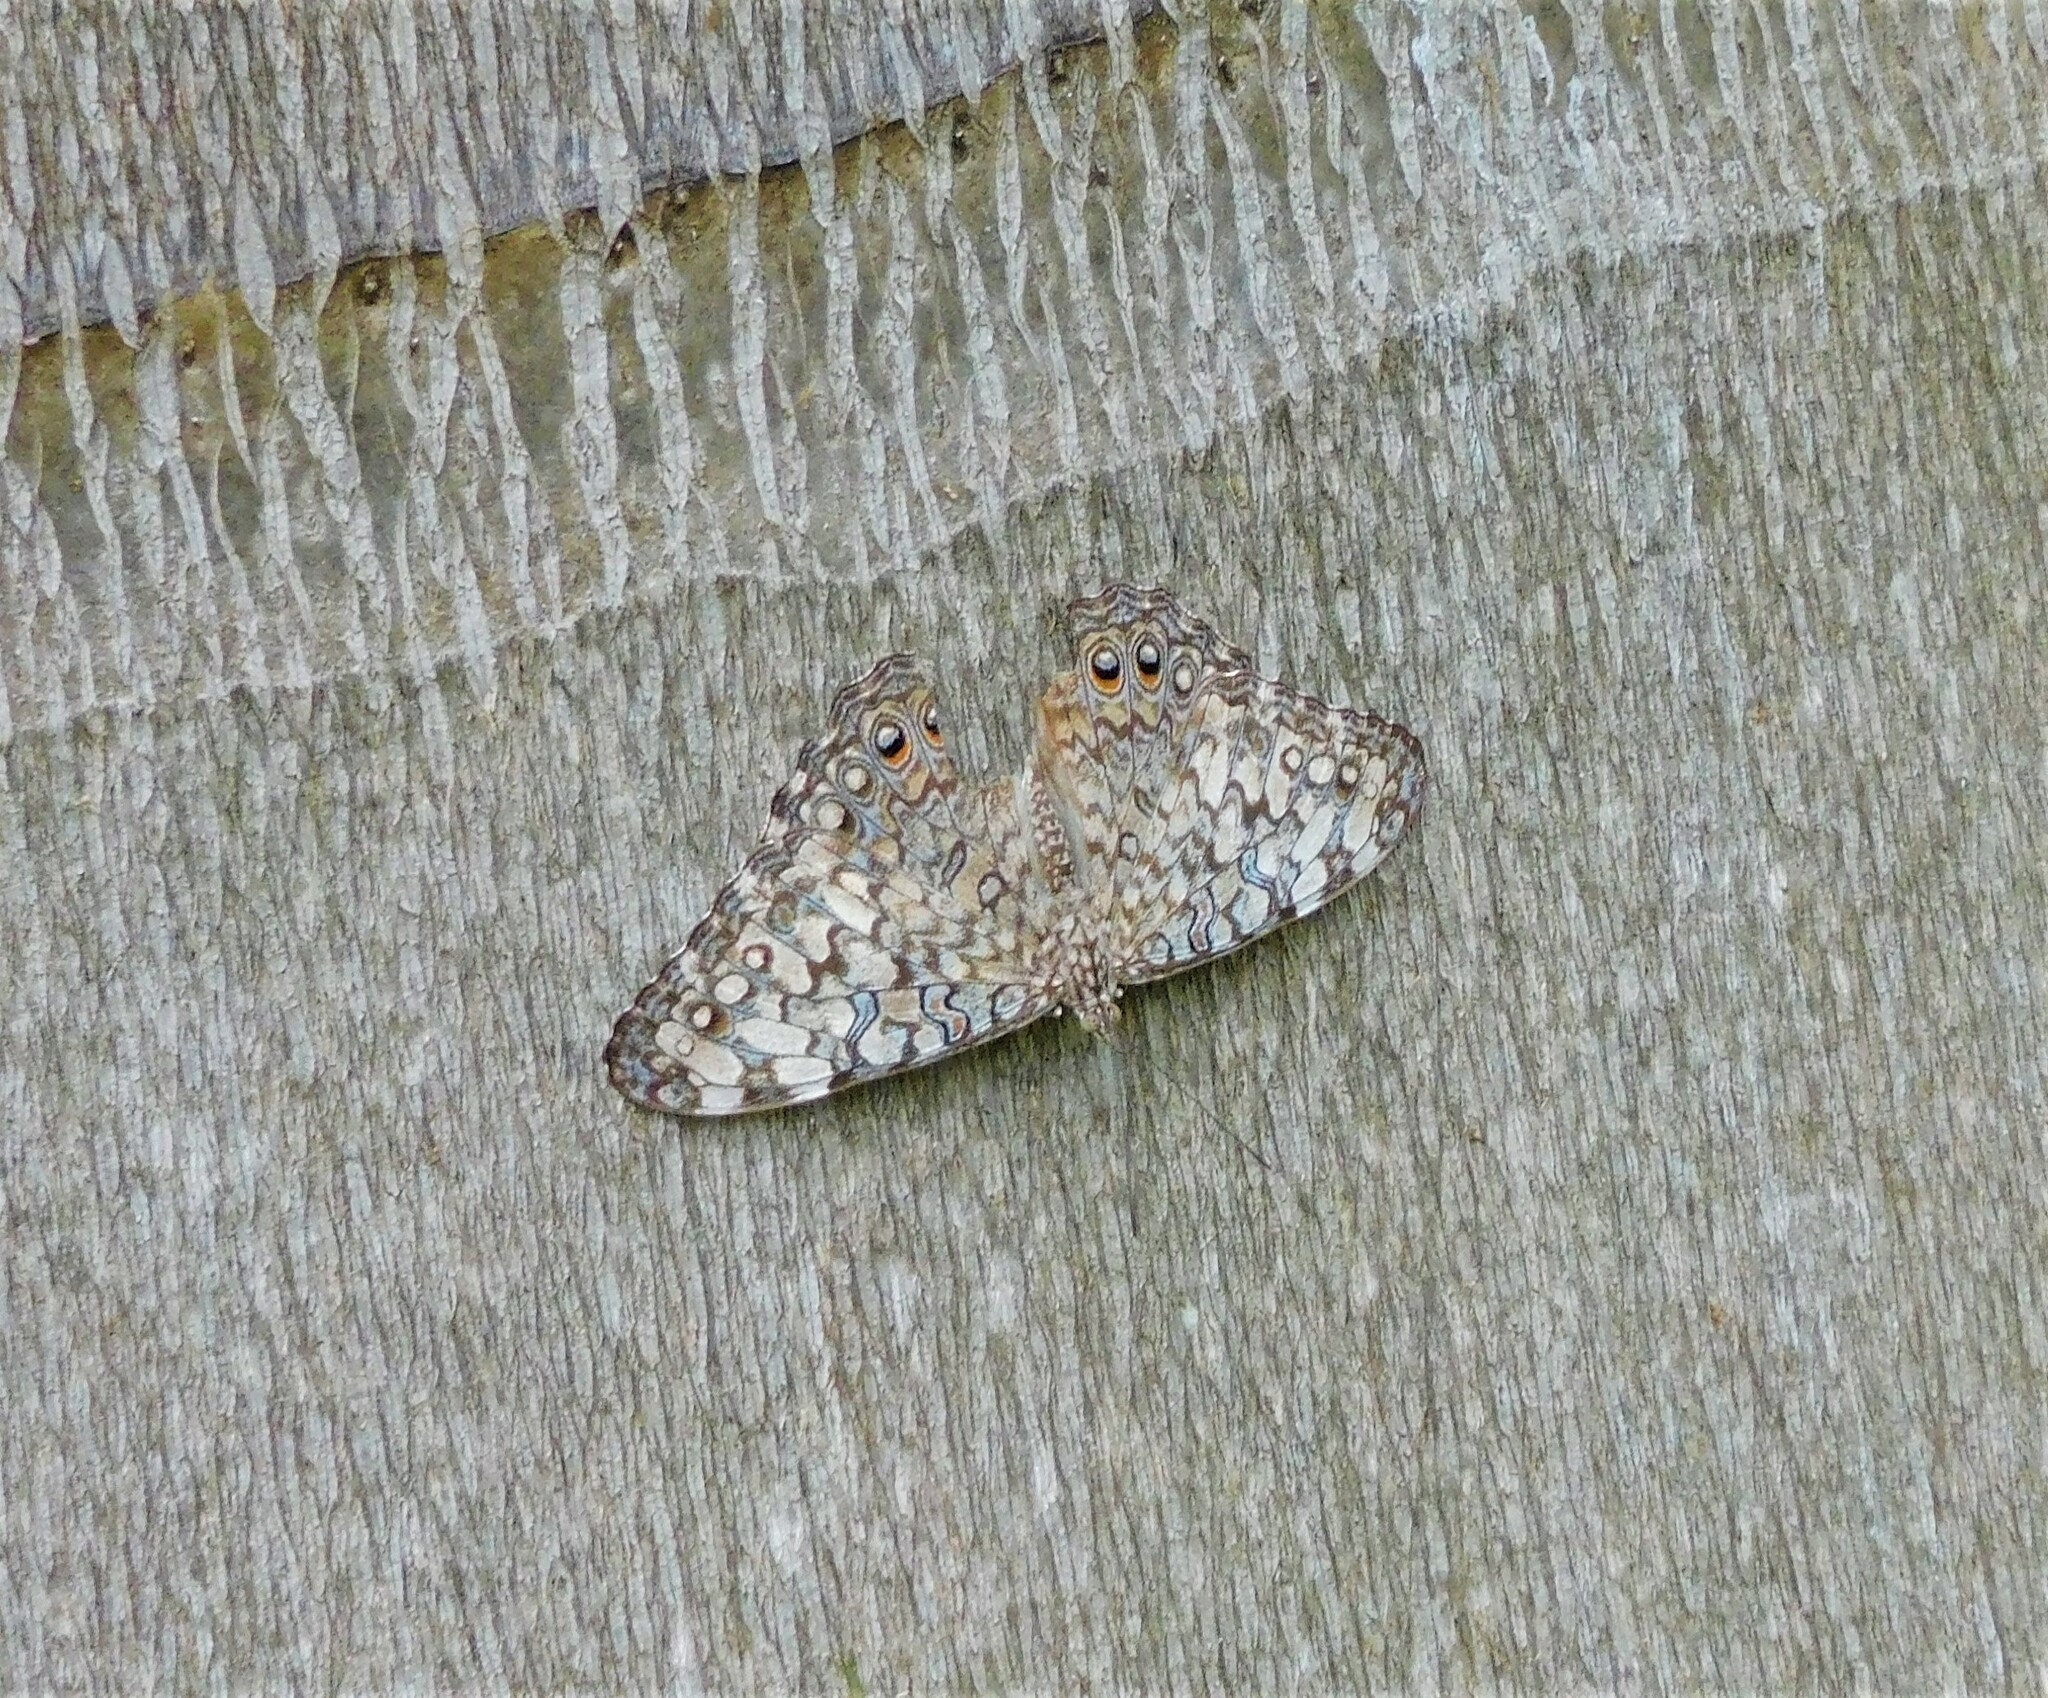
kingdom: Animalia
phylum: Arthropoda
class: Insecta
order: Lepidoptera
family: Nymphalidae
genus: Hamadryas
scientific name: Hamadryas februa
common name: Gray cracker
